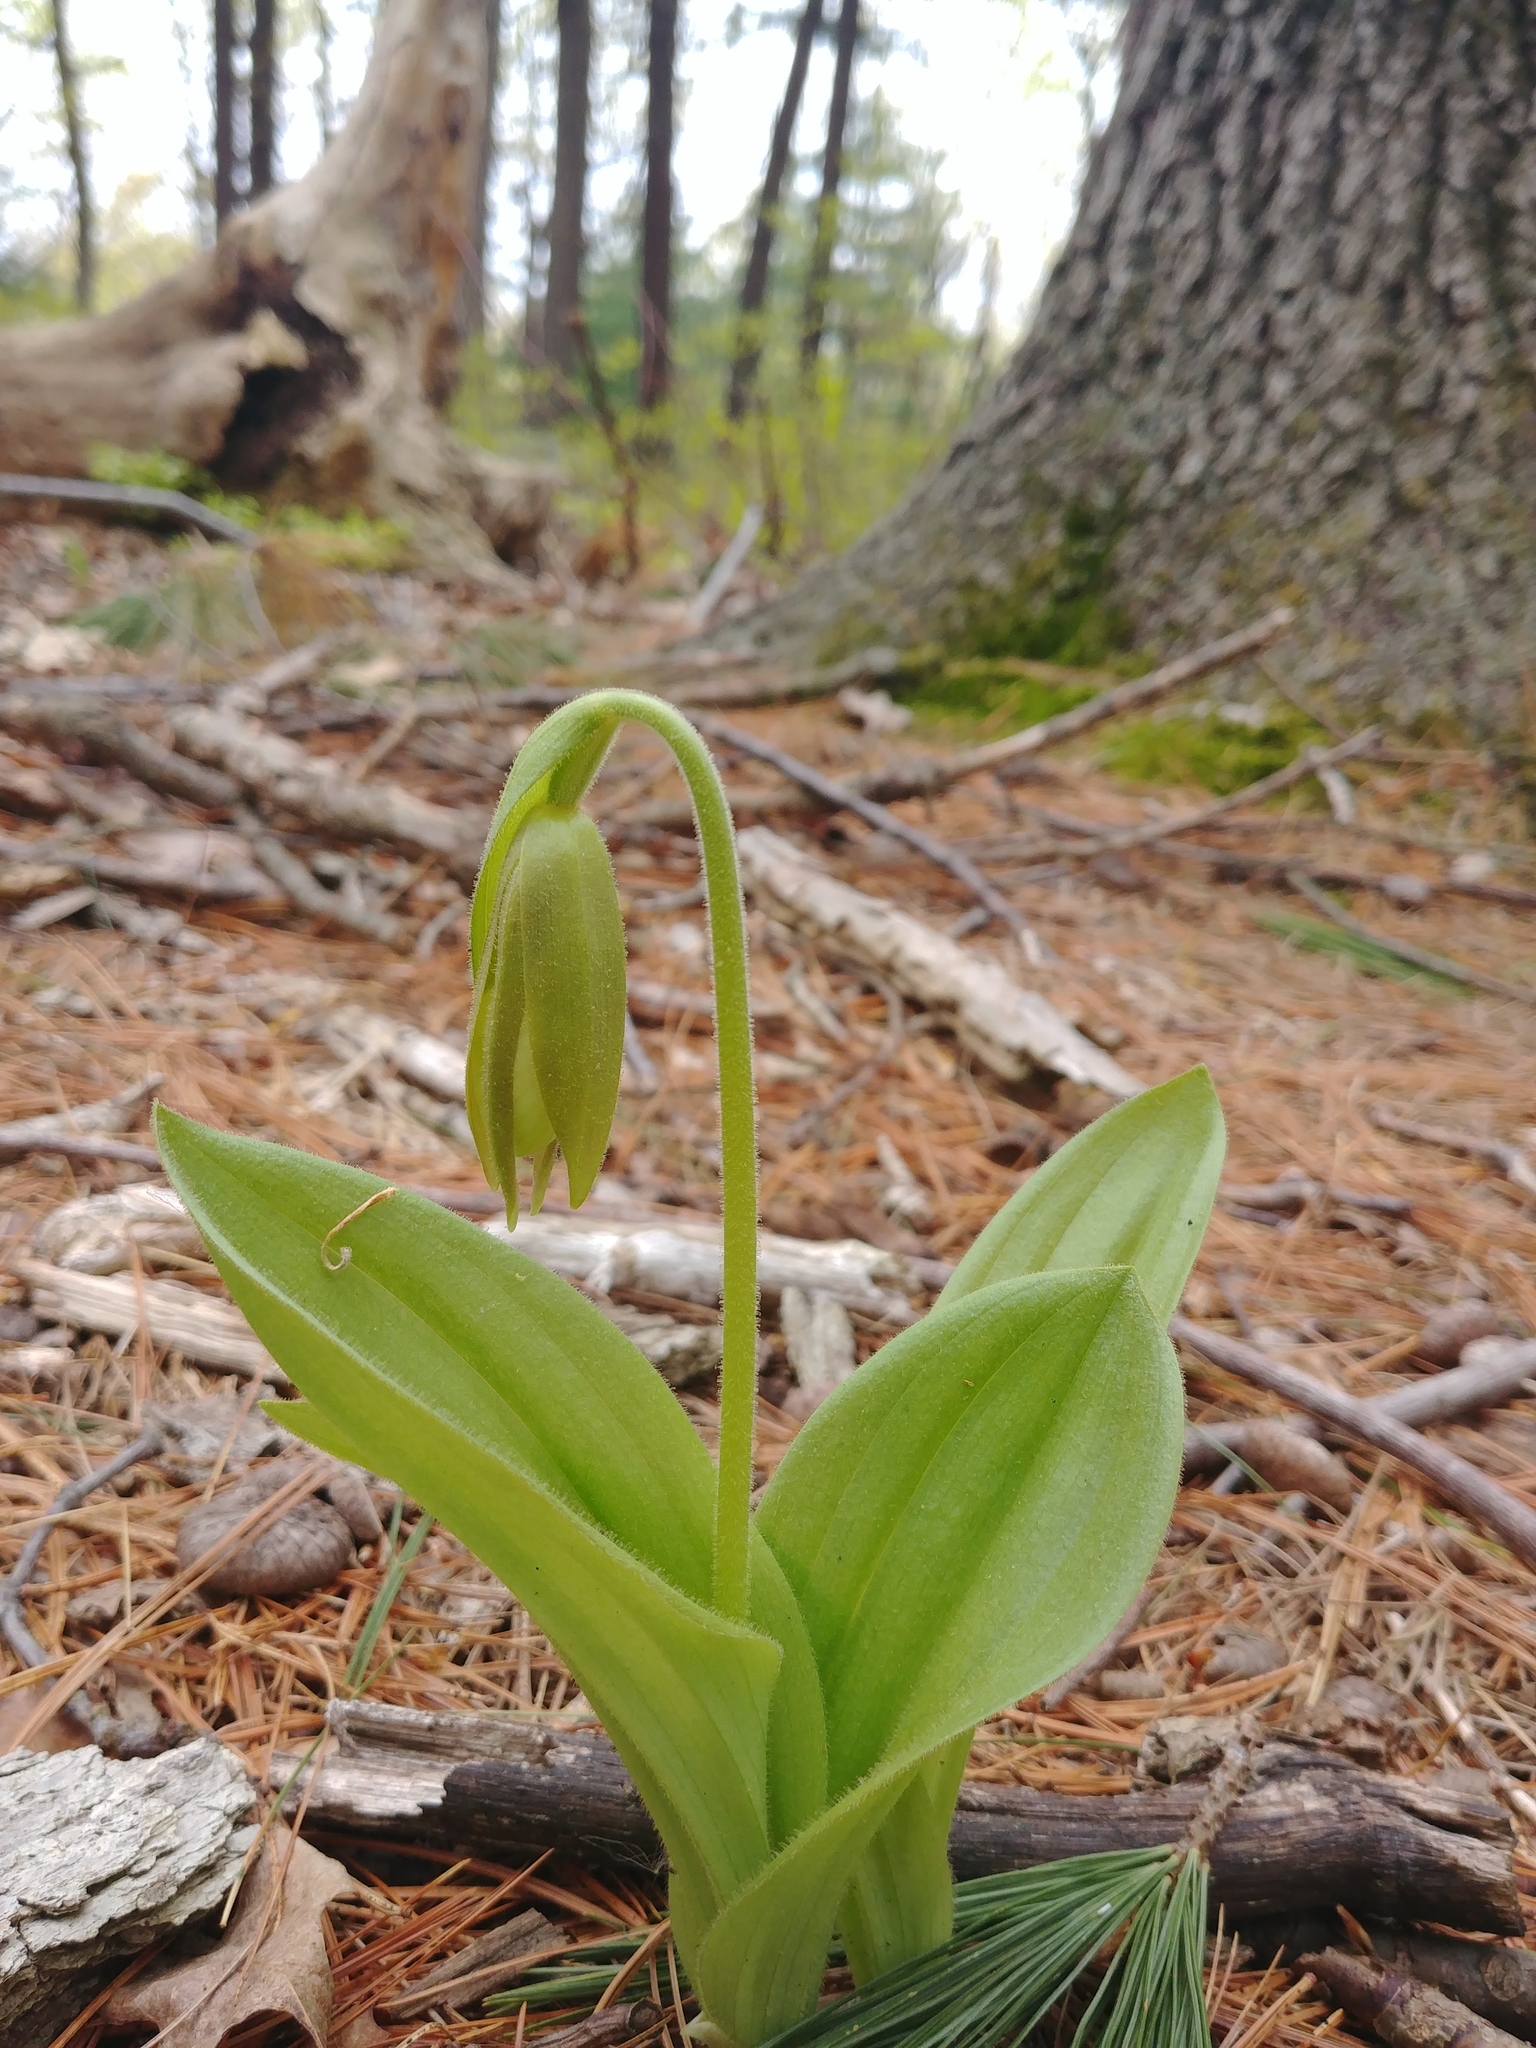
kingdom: Plantae
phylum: Tracheophyta
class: Liliopsida
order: Asparagales
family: Orchidaceae
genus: Cypripedium
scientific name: Cypripedium acaule
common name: Pink lady's-slipper
